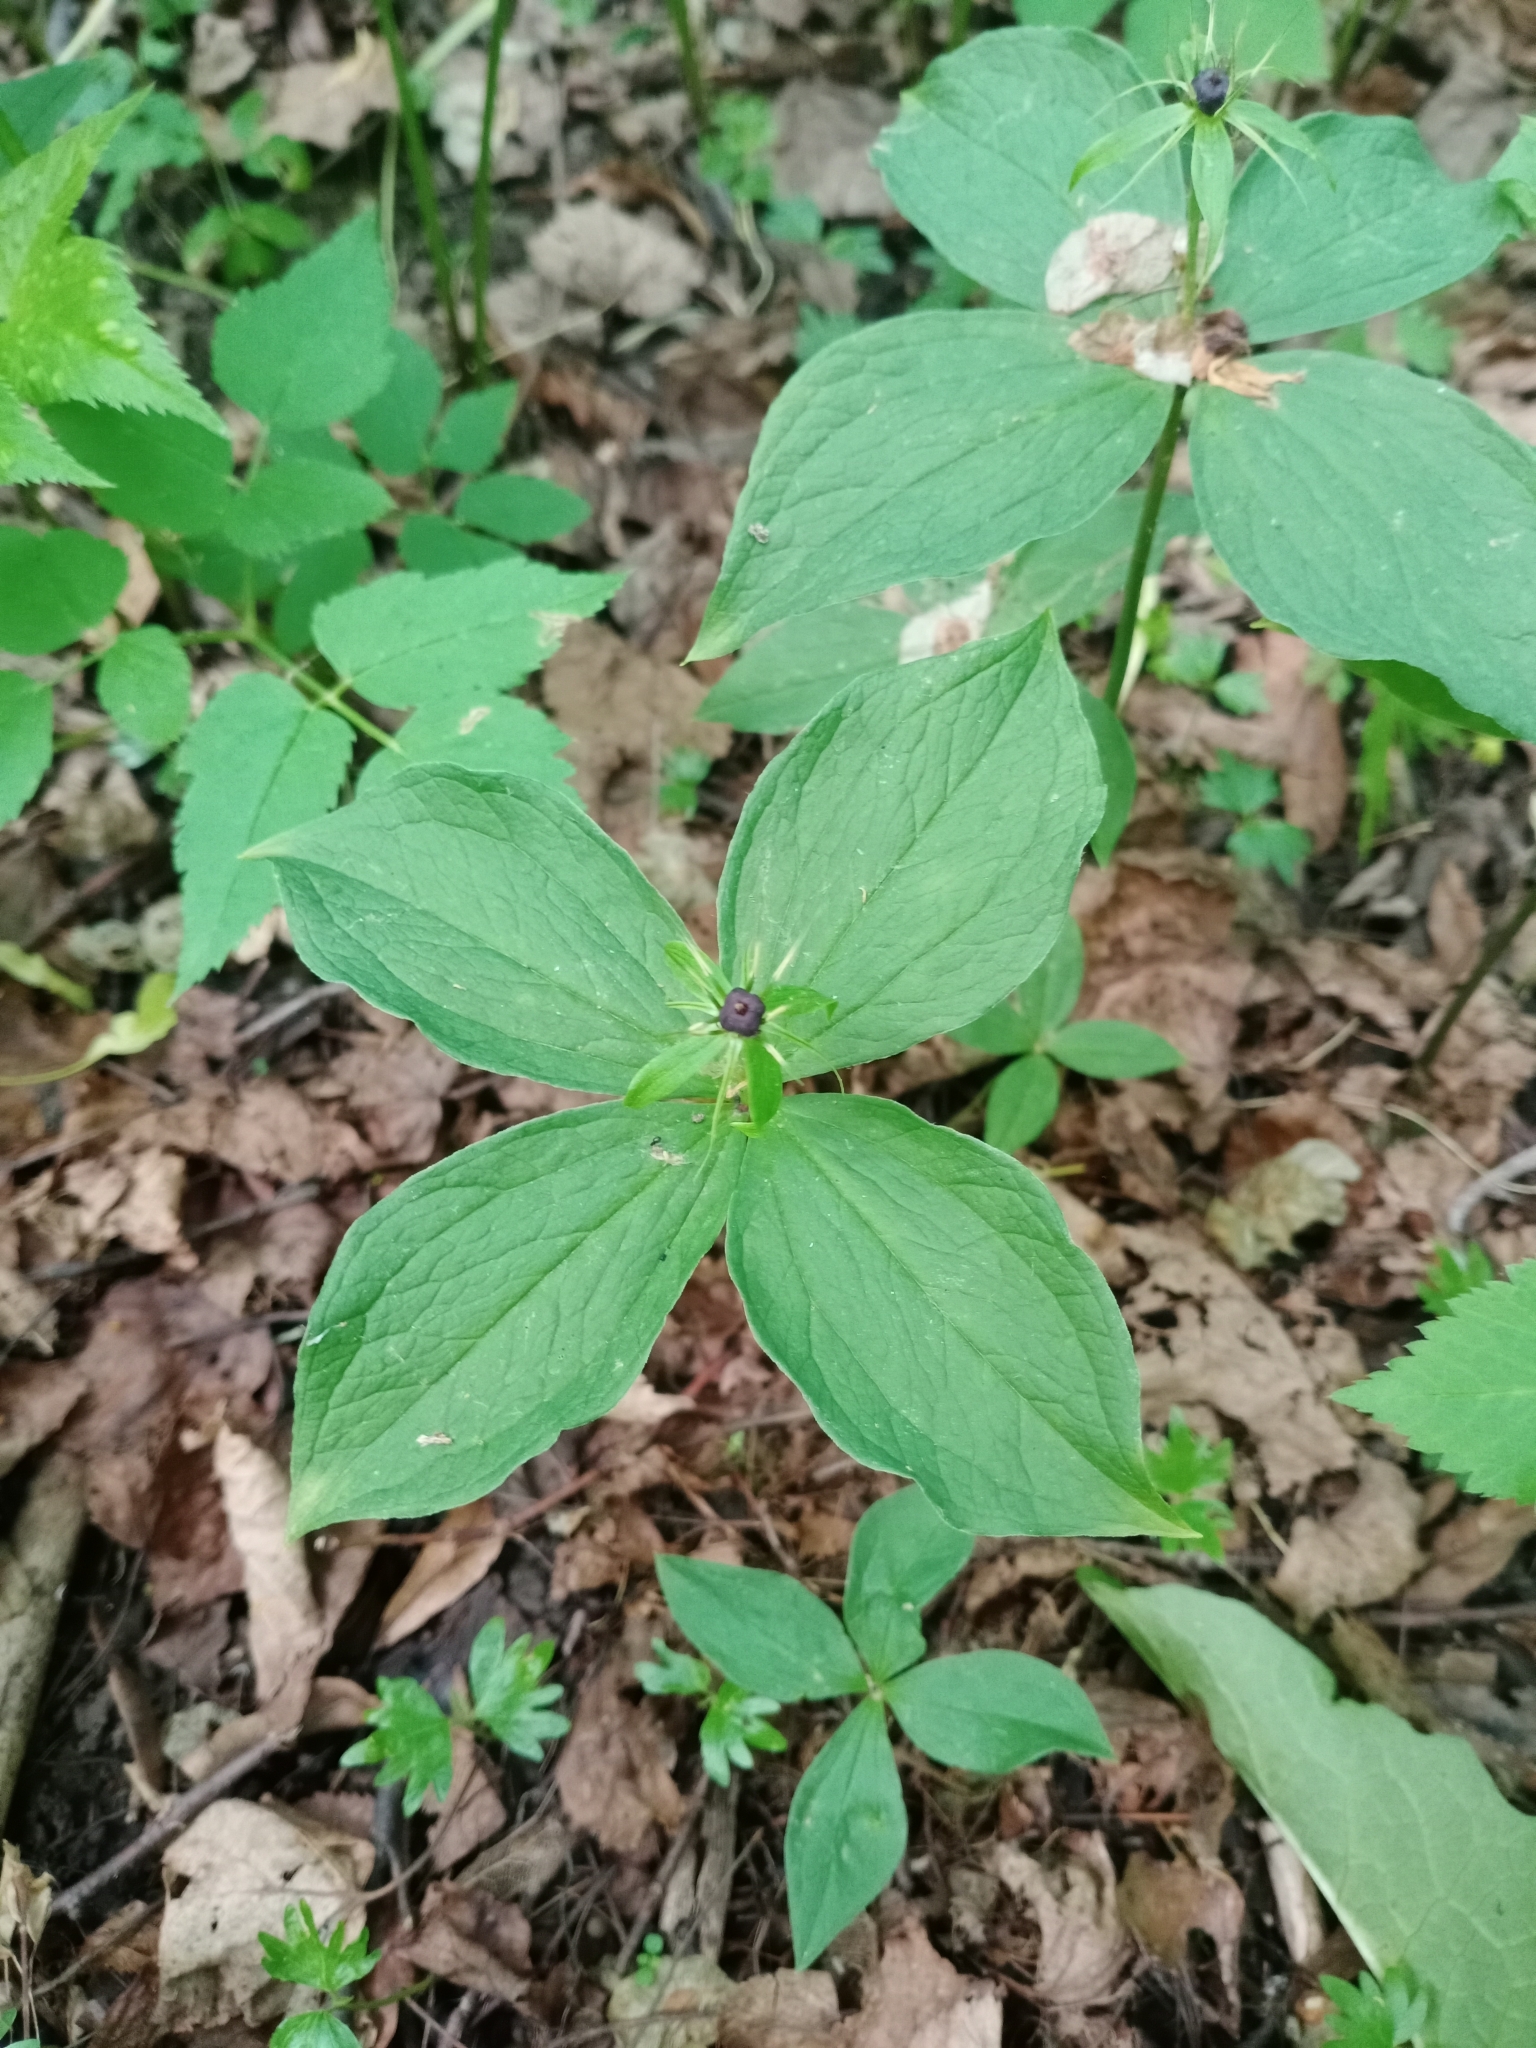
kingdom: Plantae
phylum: Tracheophyta
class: Liliopsida
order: Liliales
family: Melanthiaceae
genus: Paris
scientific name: Paris quadrifolia
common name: Herb-paris
